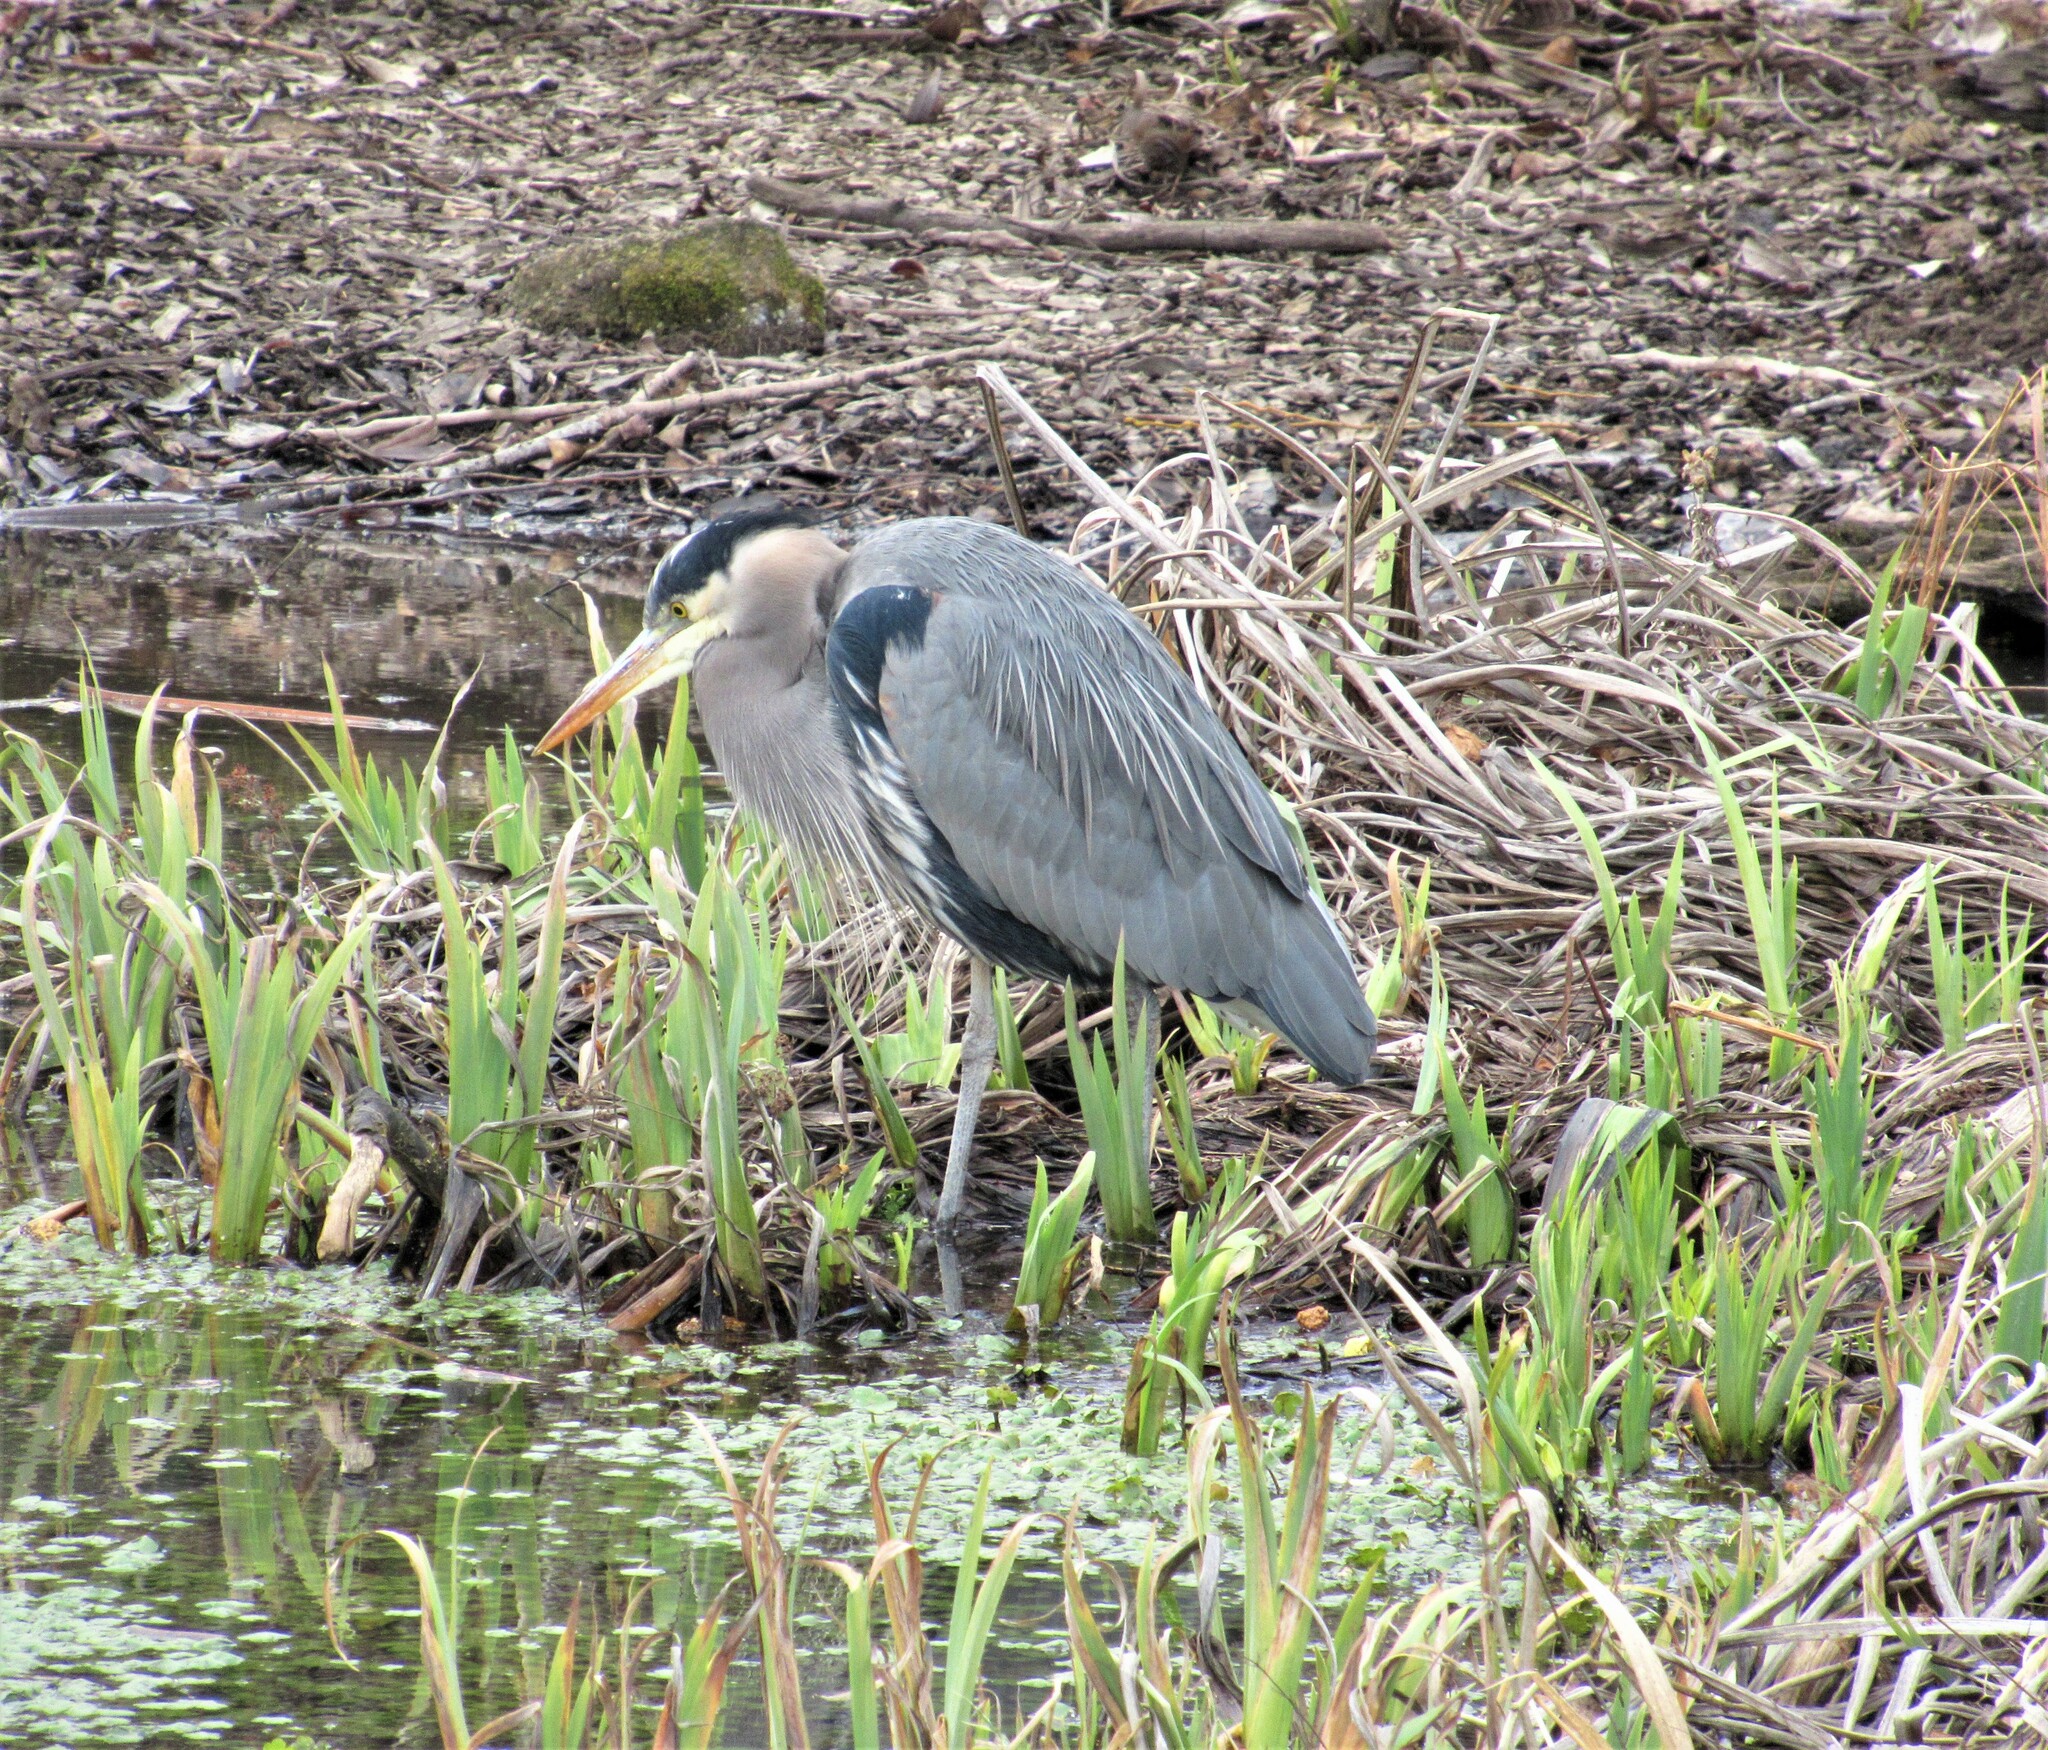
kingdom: Animalia
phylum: Chordata
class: Aves
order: Pelecaniformes
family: Ardeidae
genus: Ardea
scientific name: Ardea herodias
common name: Great blue heron
